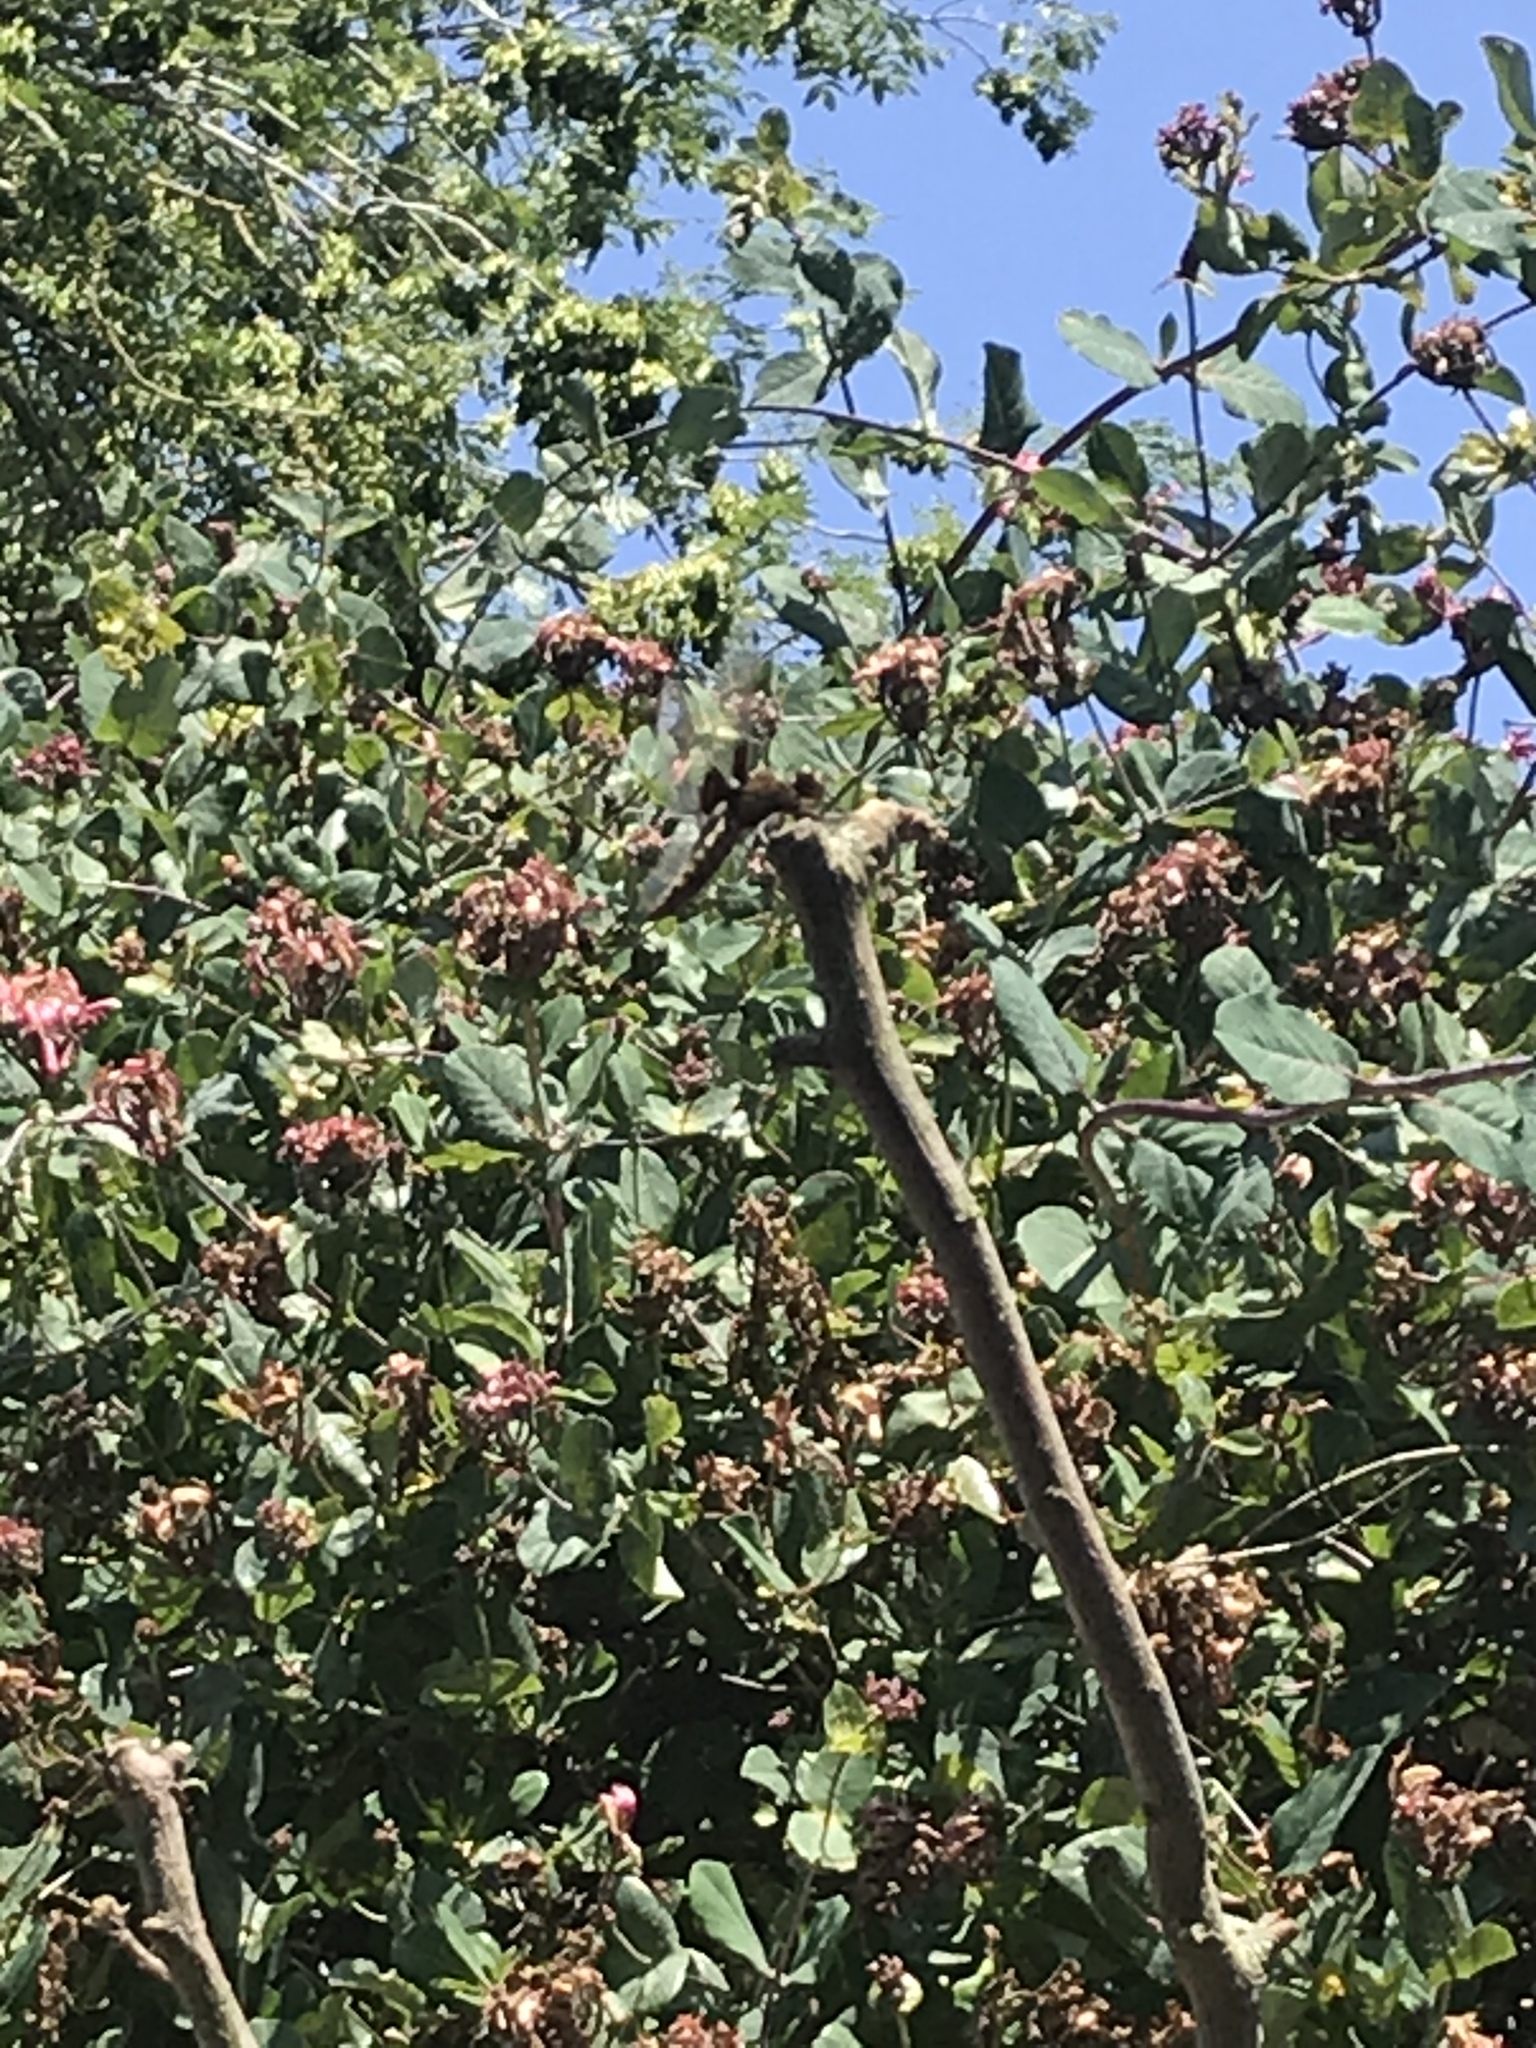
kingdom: Animalia
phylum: Arthropoda
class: Insecta
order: Odonata
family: Libellulidae
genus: Libellula
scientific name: Libellula depressa
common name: Broad-bodied chaser
